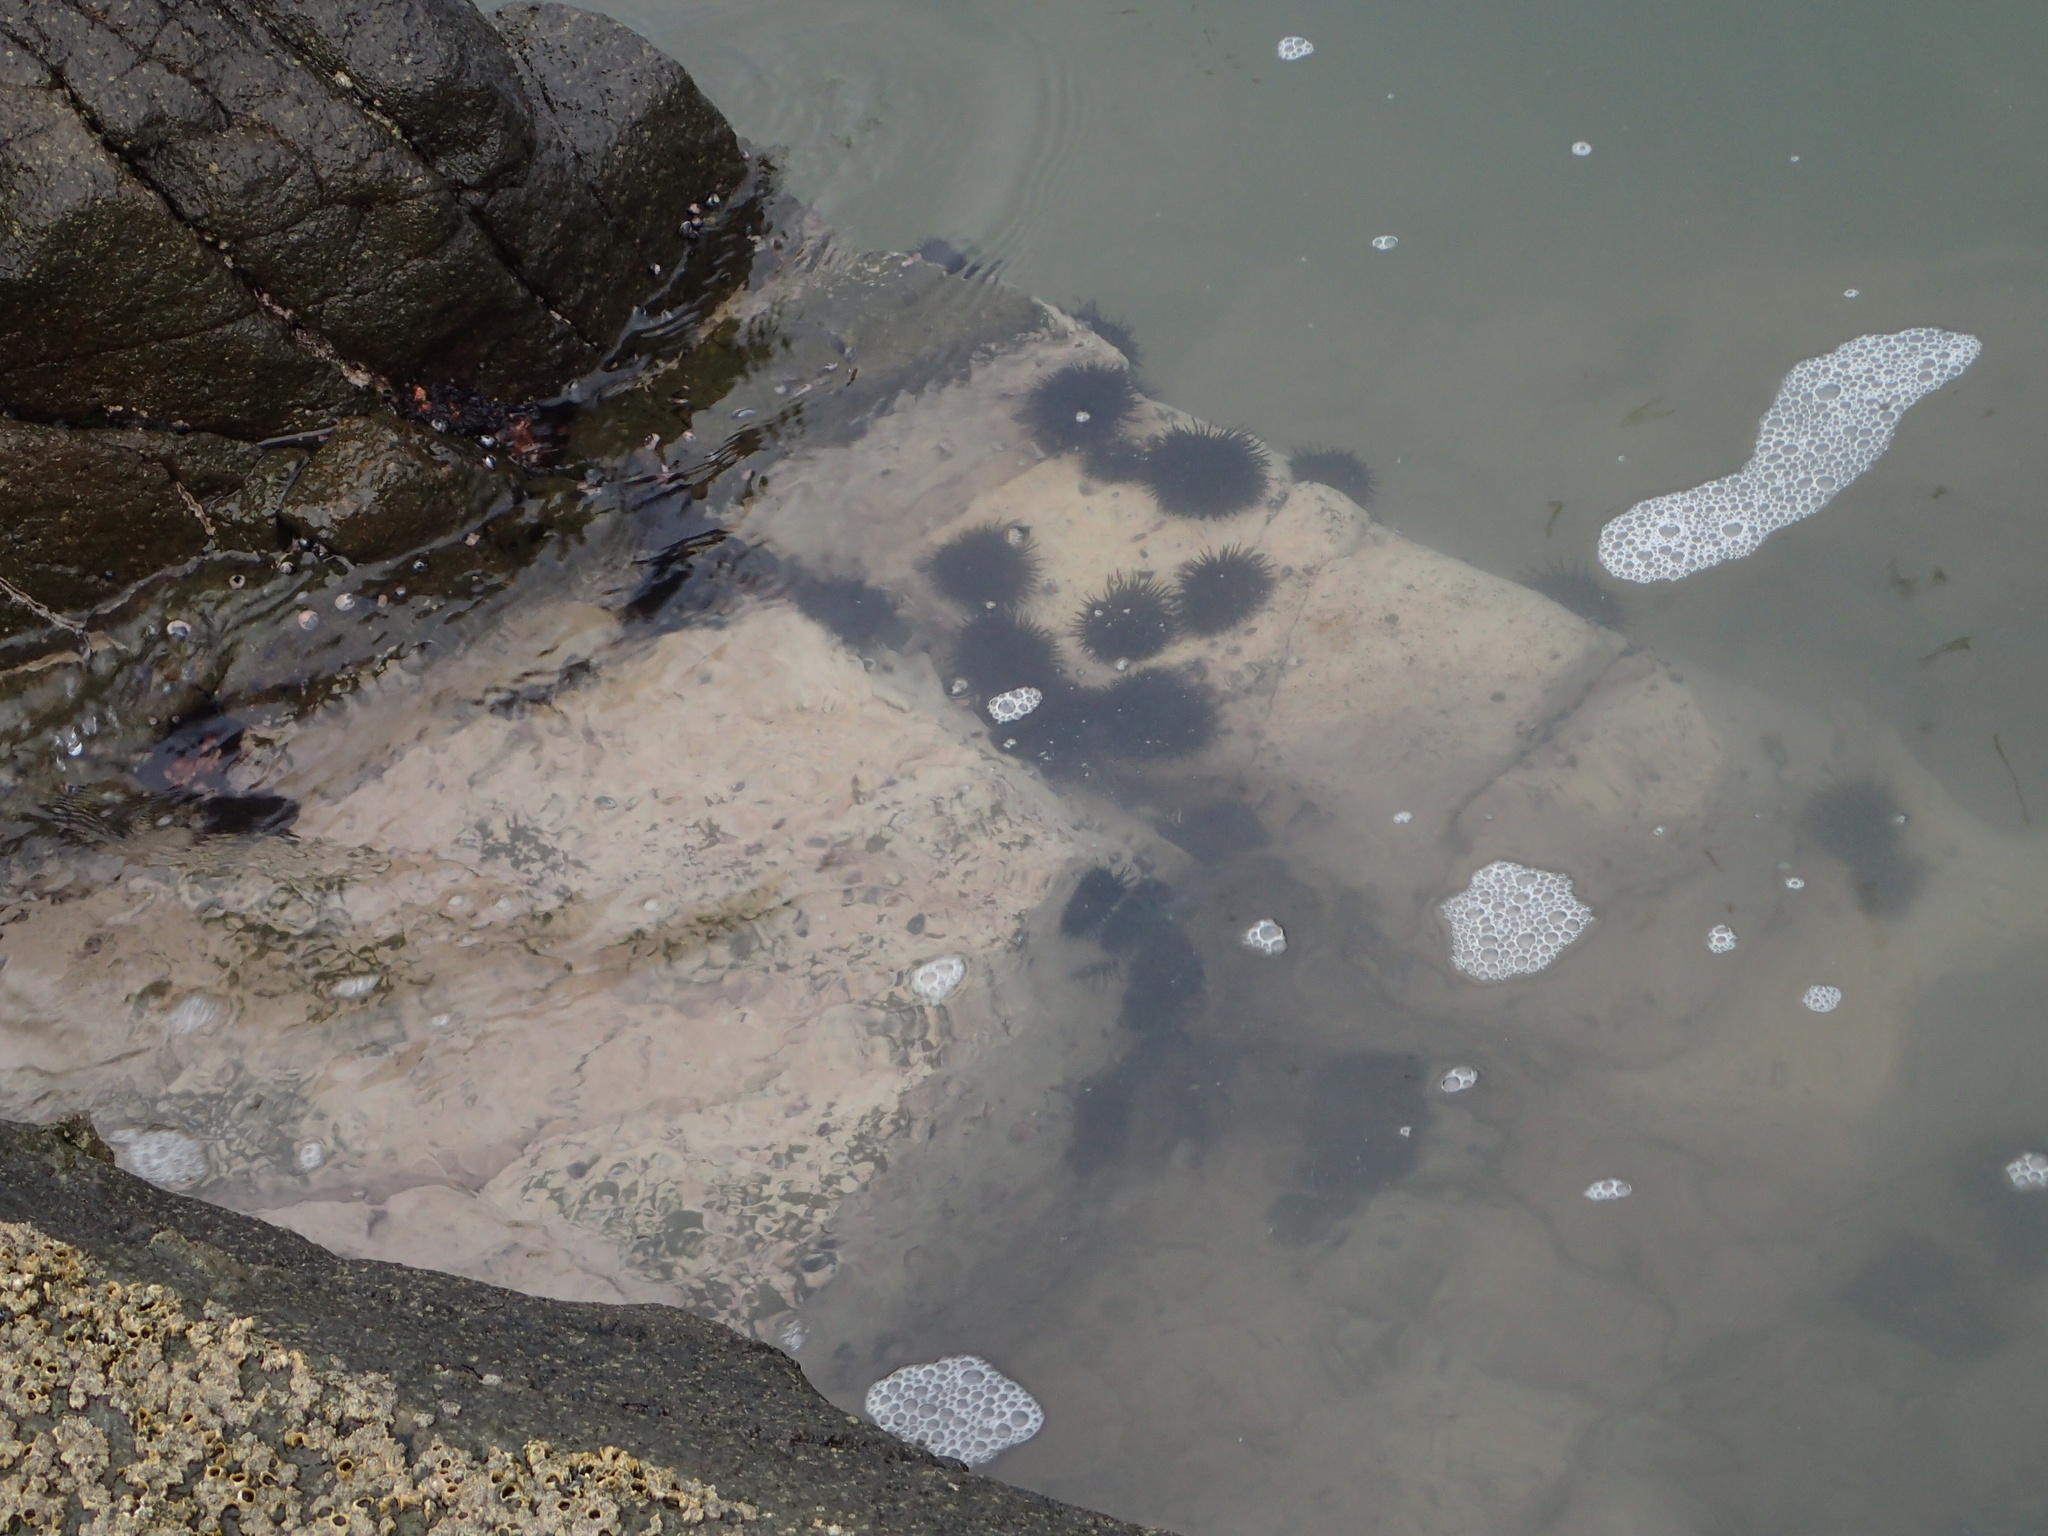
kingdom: Animalia
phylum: Echinodermata
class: Echinoidea
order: Arbacioida
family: Arbaciidae
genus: Tetrapygus
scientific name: Tetrapygus niger
